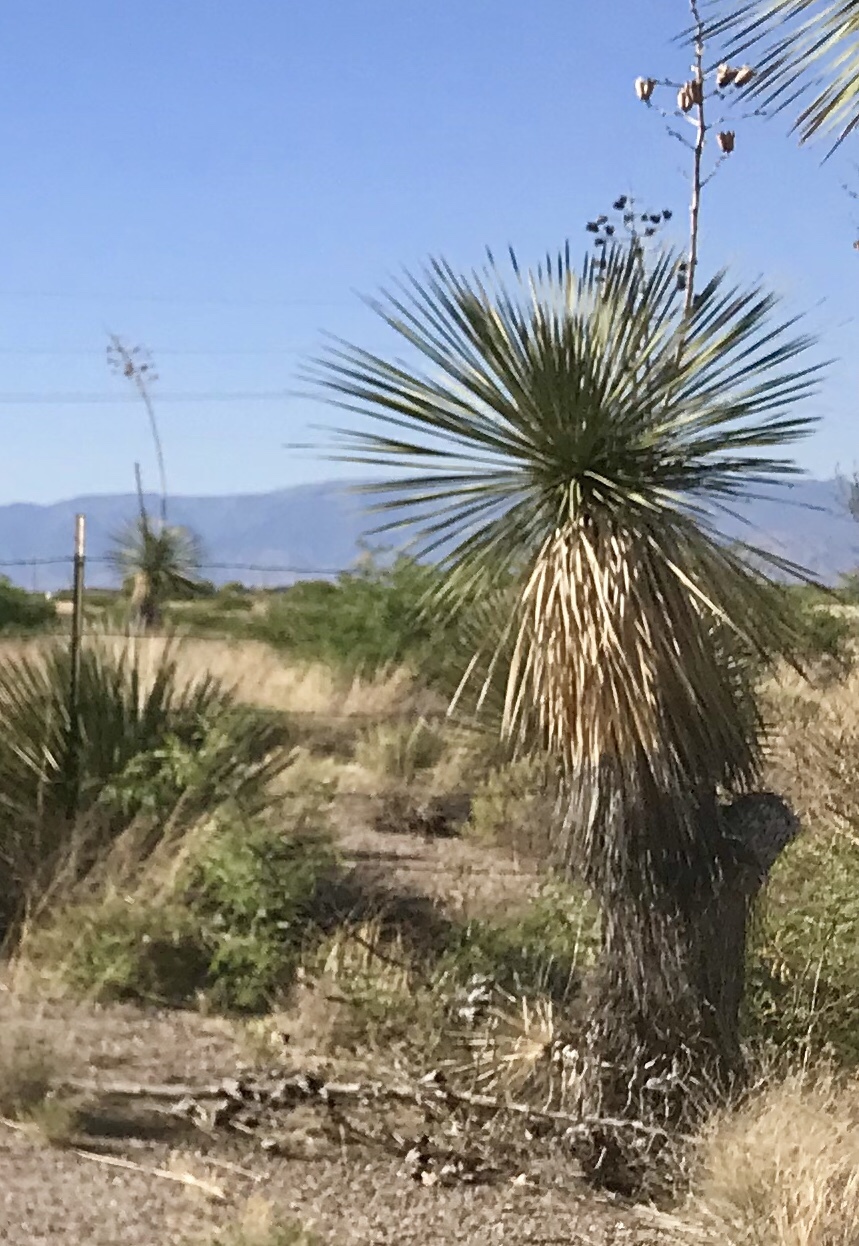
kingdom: Plantae
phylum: Tracheophyta
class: Liliopsida
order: Asparagales
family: Asparagaceae
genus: Yucca
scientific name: Yucca elata
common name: Palmella
